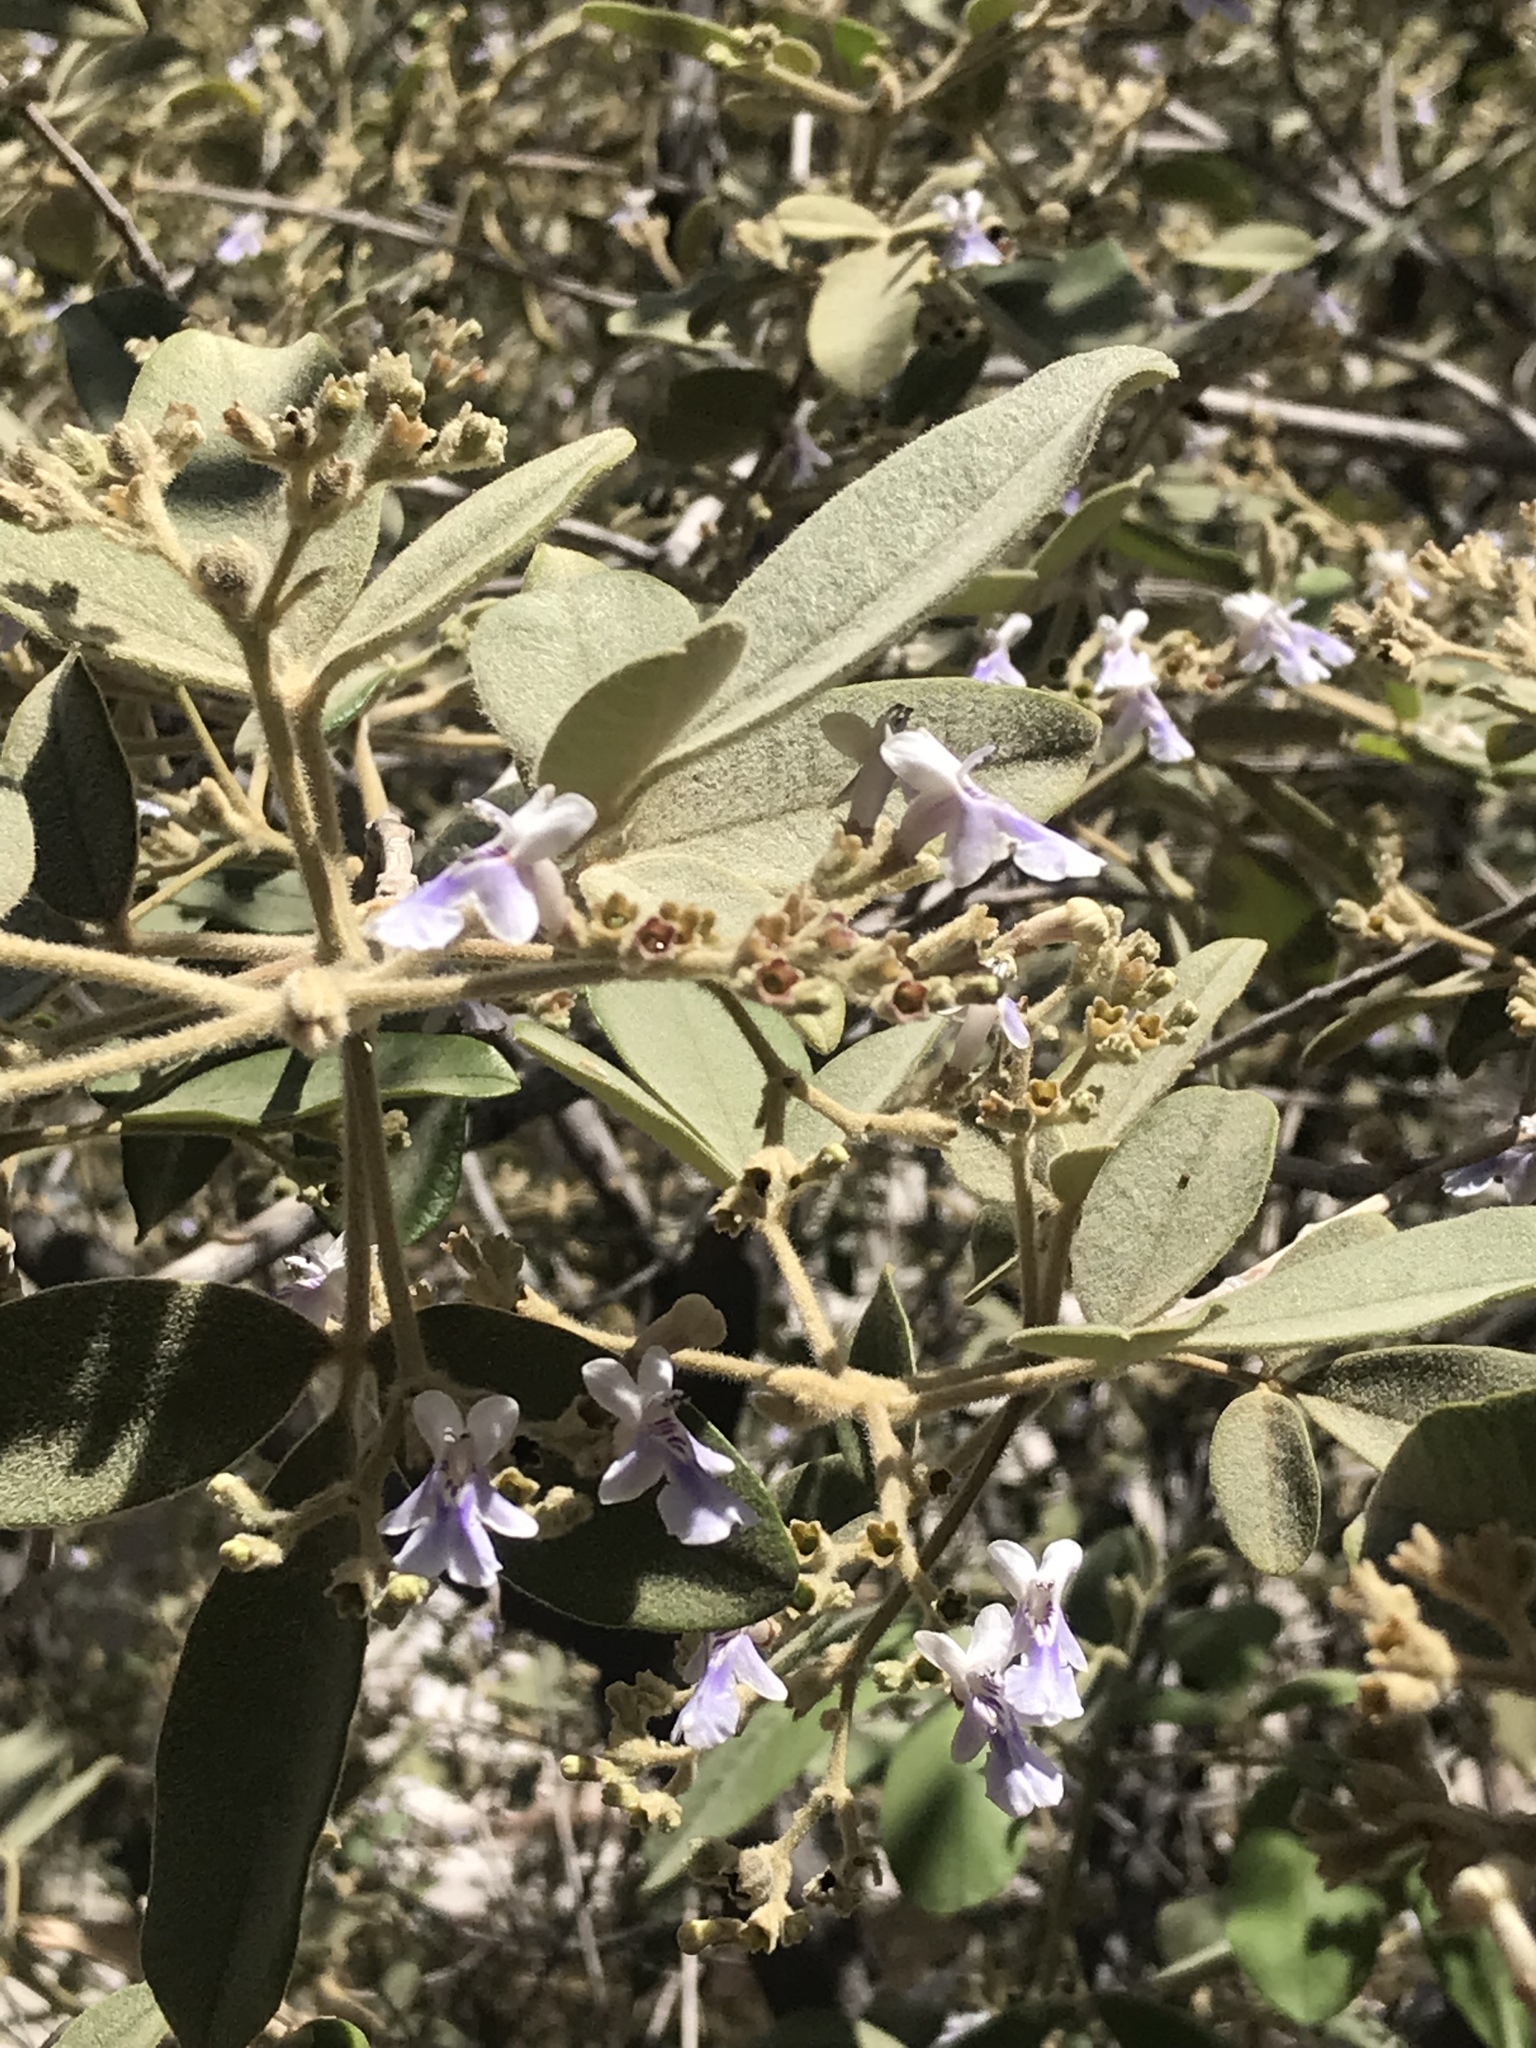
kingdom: Plantae
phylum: Tracheophyta
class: Magnoliopsida
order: Lamiales
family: Lamiaceae
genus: Vitex
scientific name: Vitex mollis
